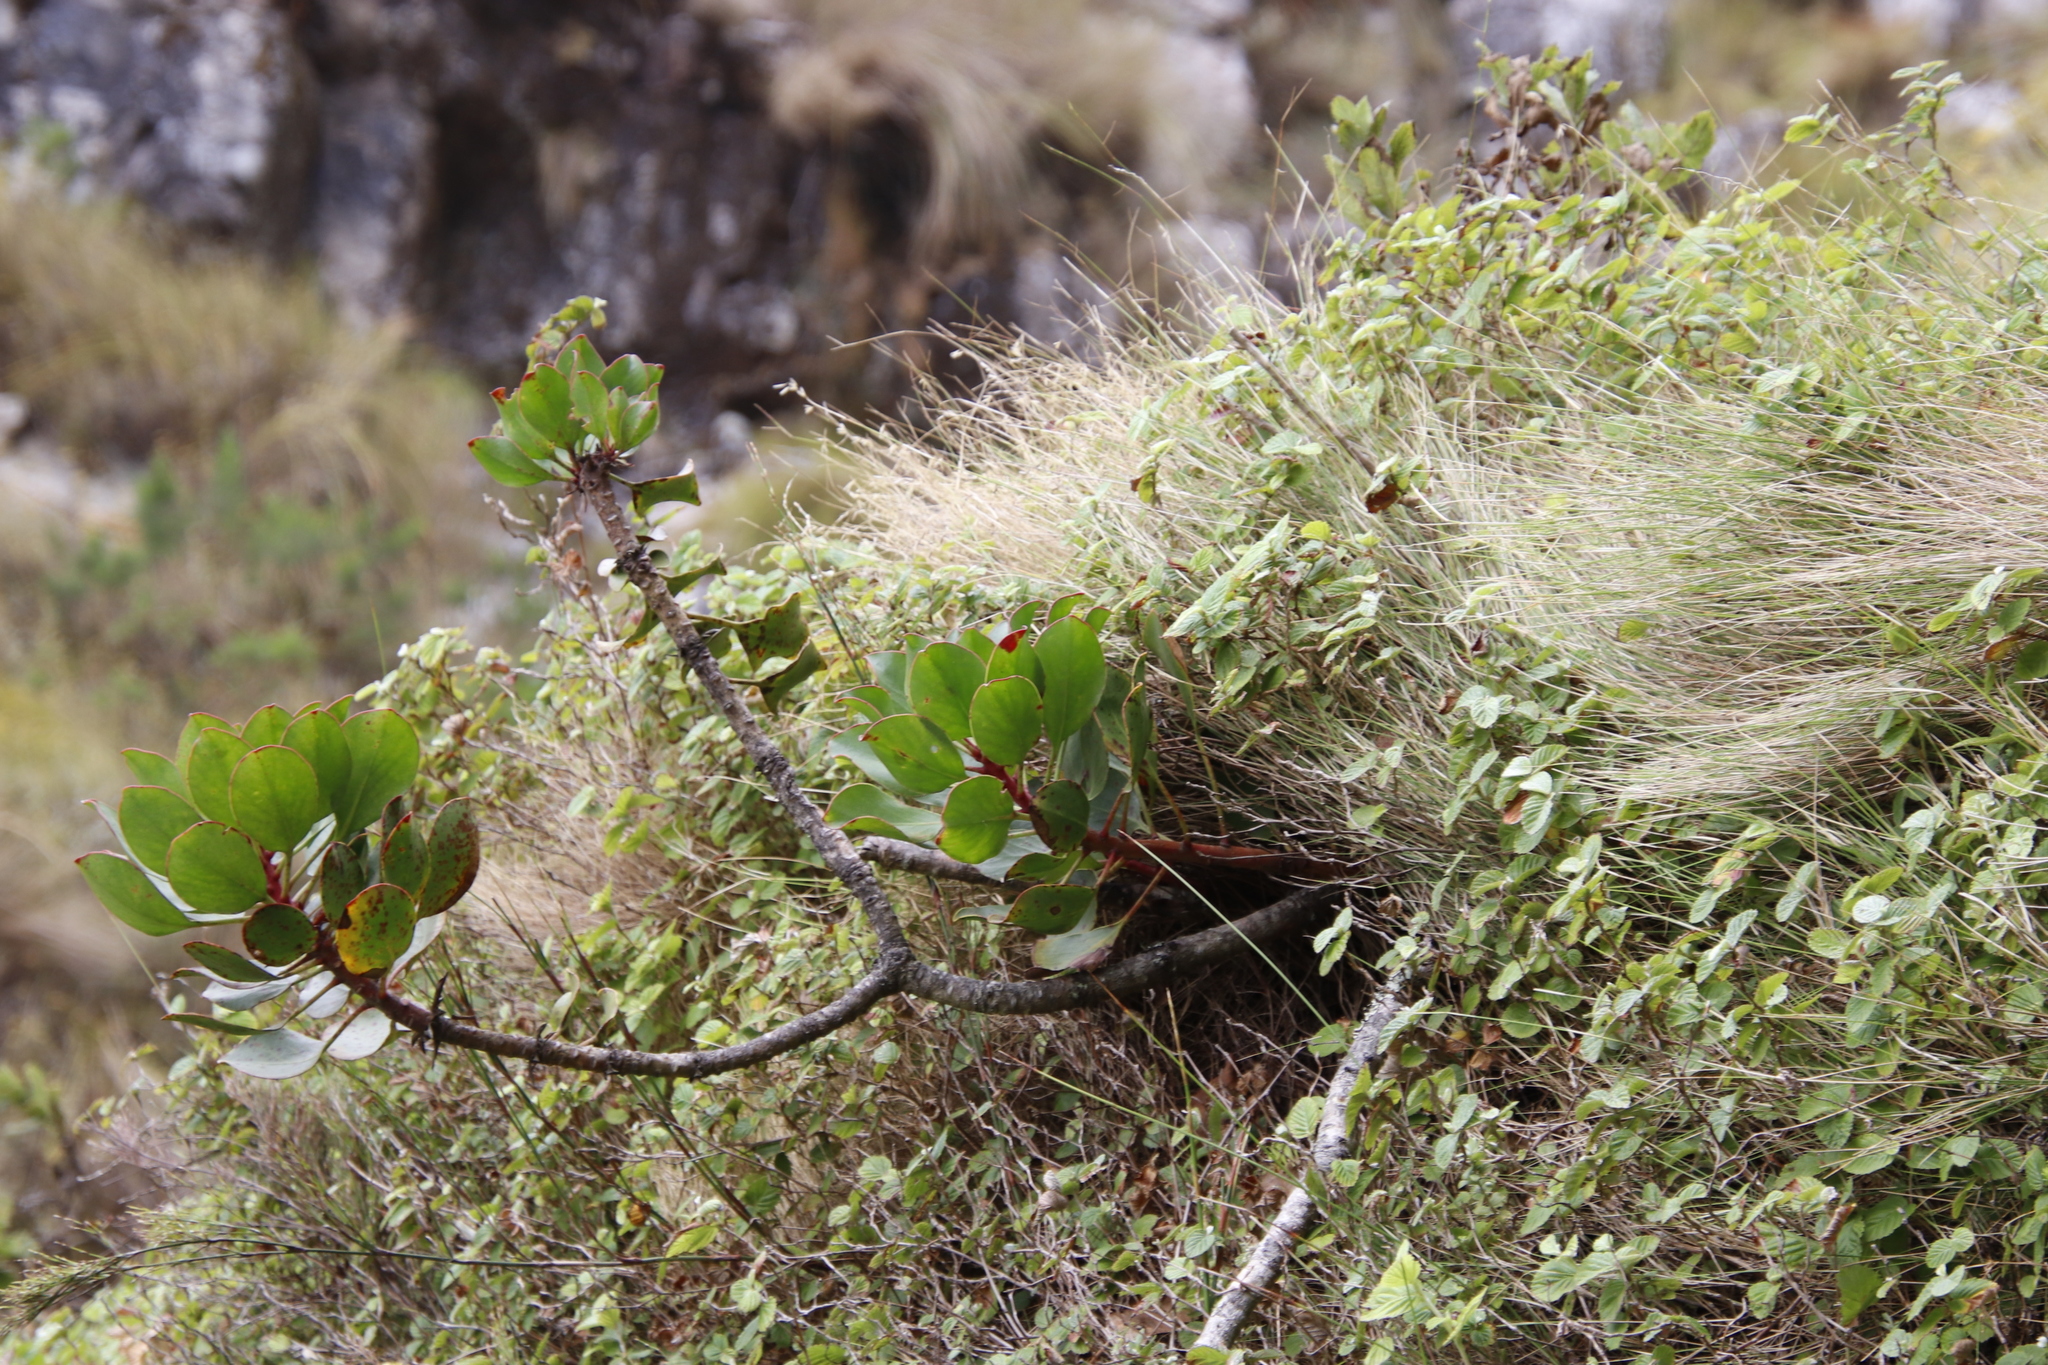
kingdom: Plantae
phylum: Tracheophyta
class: Magnoliopsida
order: Proteales
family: Proteaceae
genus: Protea
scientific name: Protea cynaroides
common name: King protea
